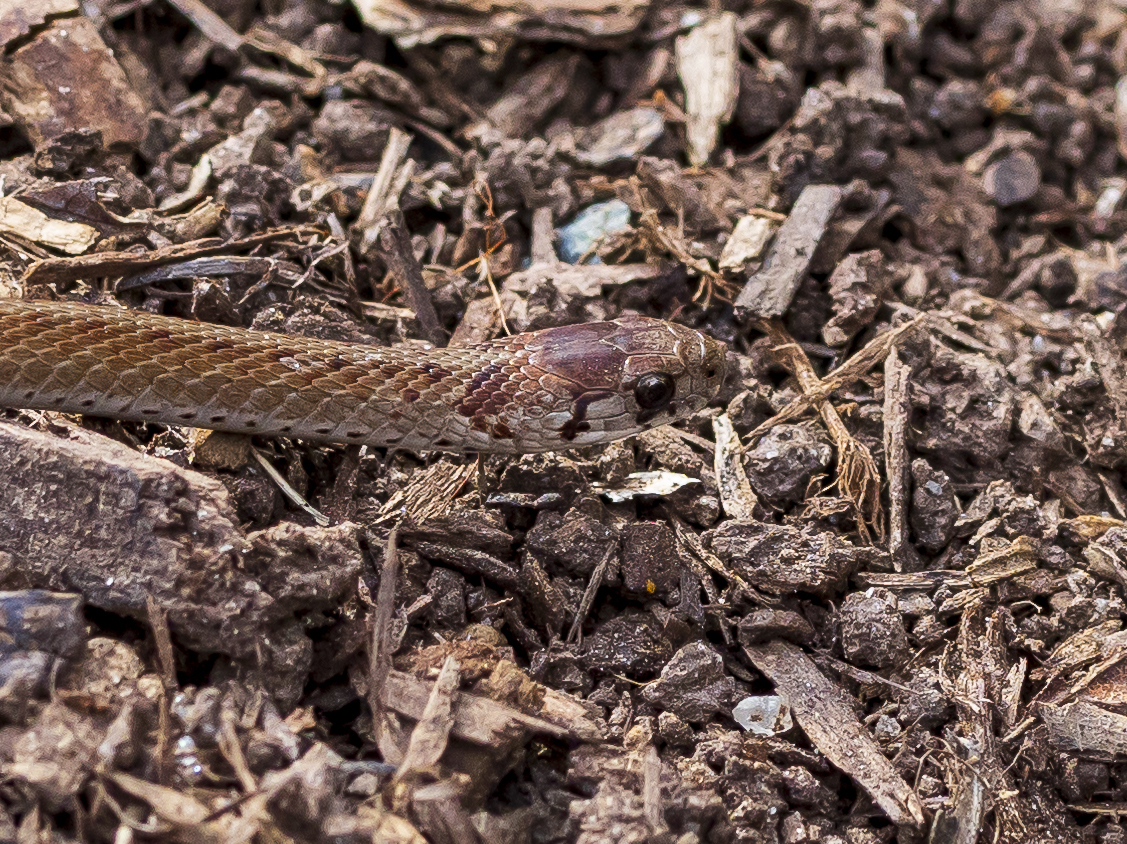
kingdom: Animalia
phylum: Chordata
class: Squamata
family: Colubridae
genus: Storeria
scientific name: Storeria dekayi
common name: (dekay’s) brown snake
